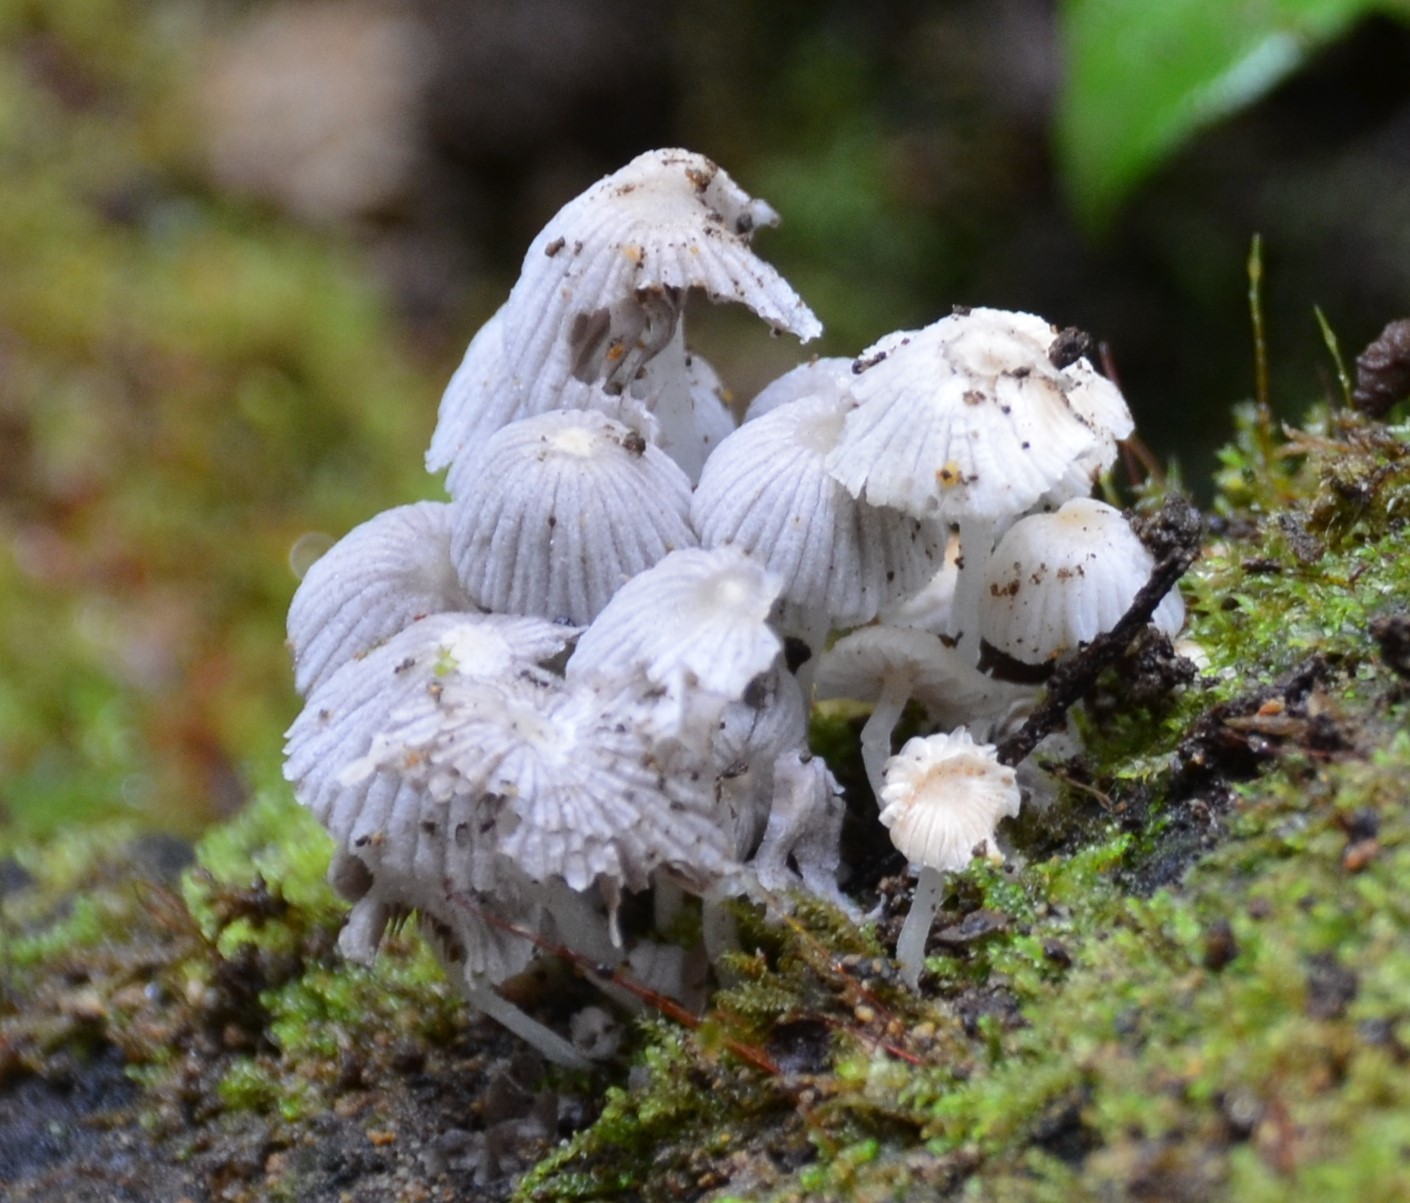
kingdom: Fungi
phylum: Basidiomycota
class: Agaricomycetes
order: Agaricales
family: Psathyrellaceae
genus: Coprinellus
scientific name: Coprinellus disseminatus
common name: Fairies' bonnets
